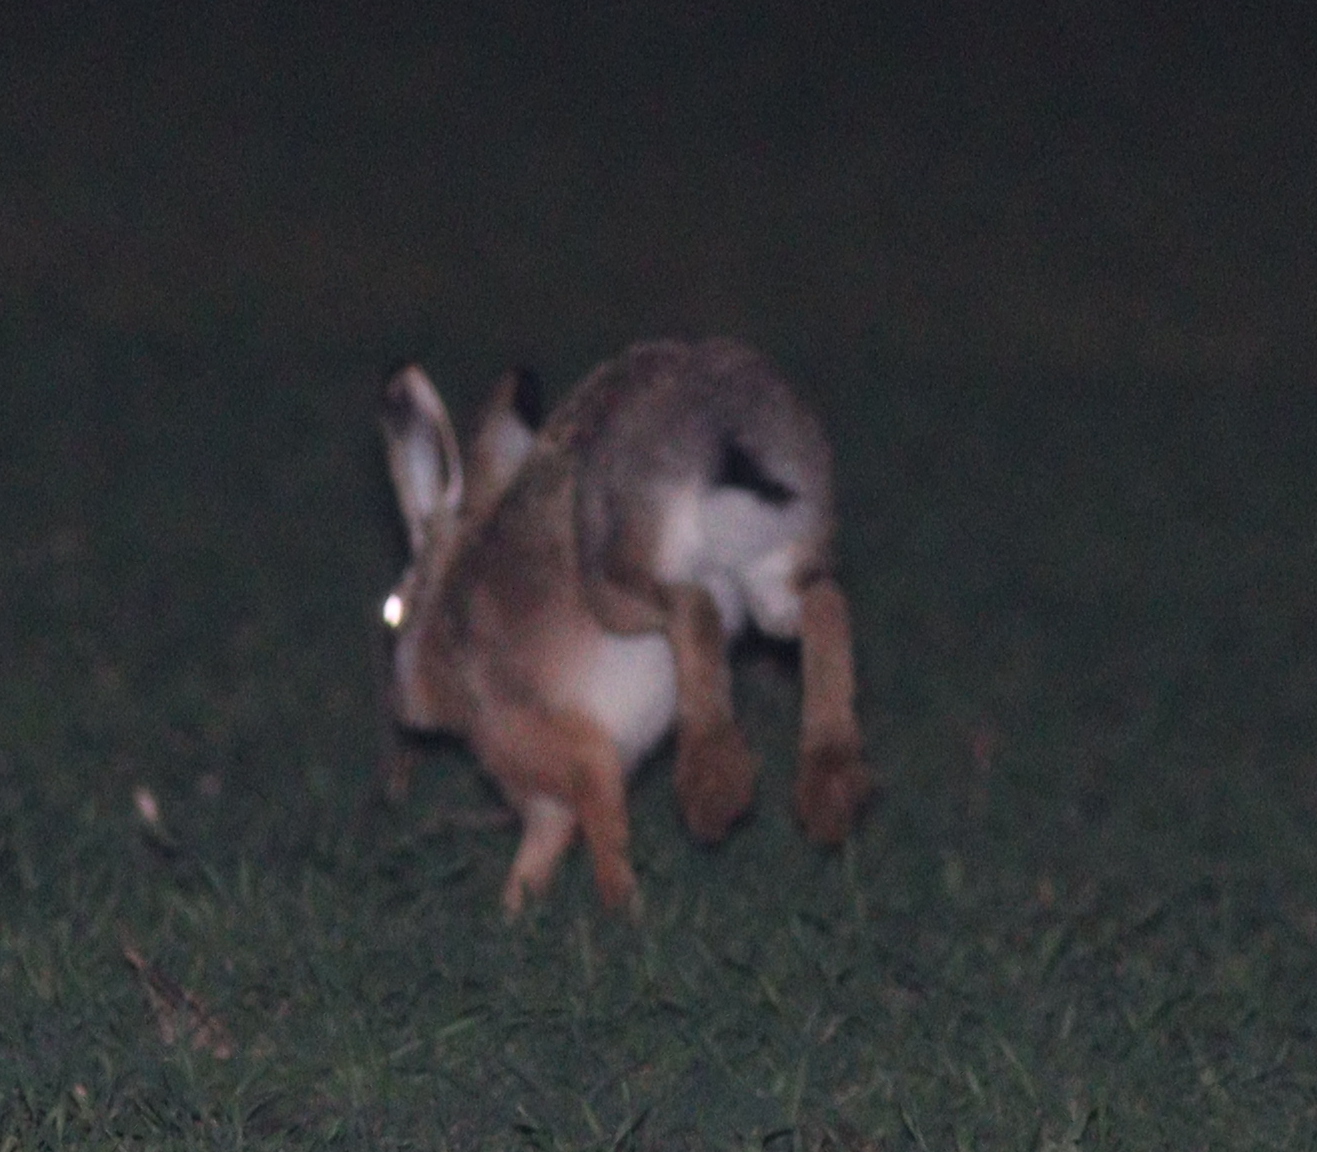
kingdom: Animalia
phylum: Chordata
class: Mammalia
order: Lagomorpha
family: Leporidae
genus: Lepus
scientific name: Lepus europaeus
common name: European hare
